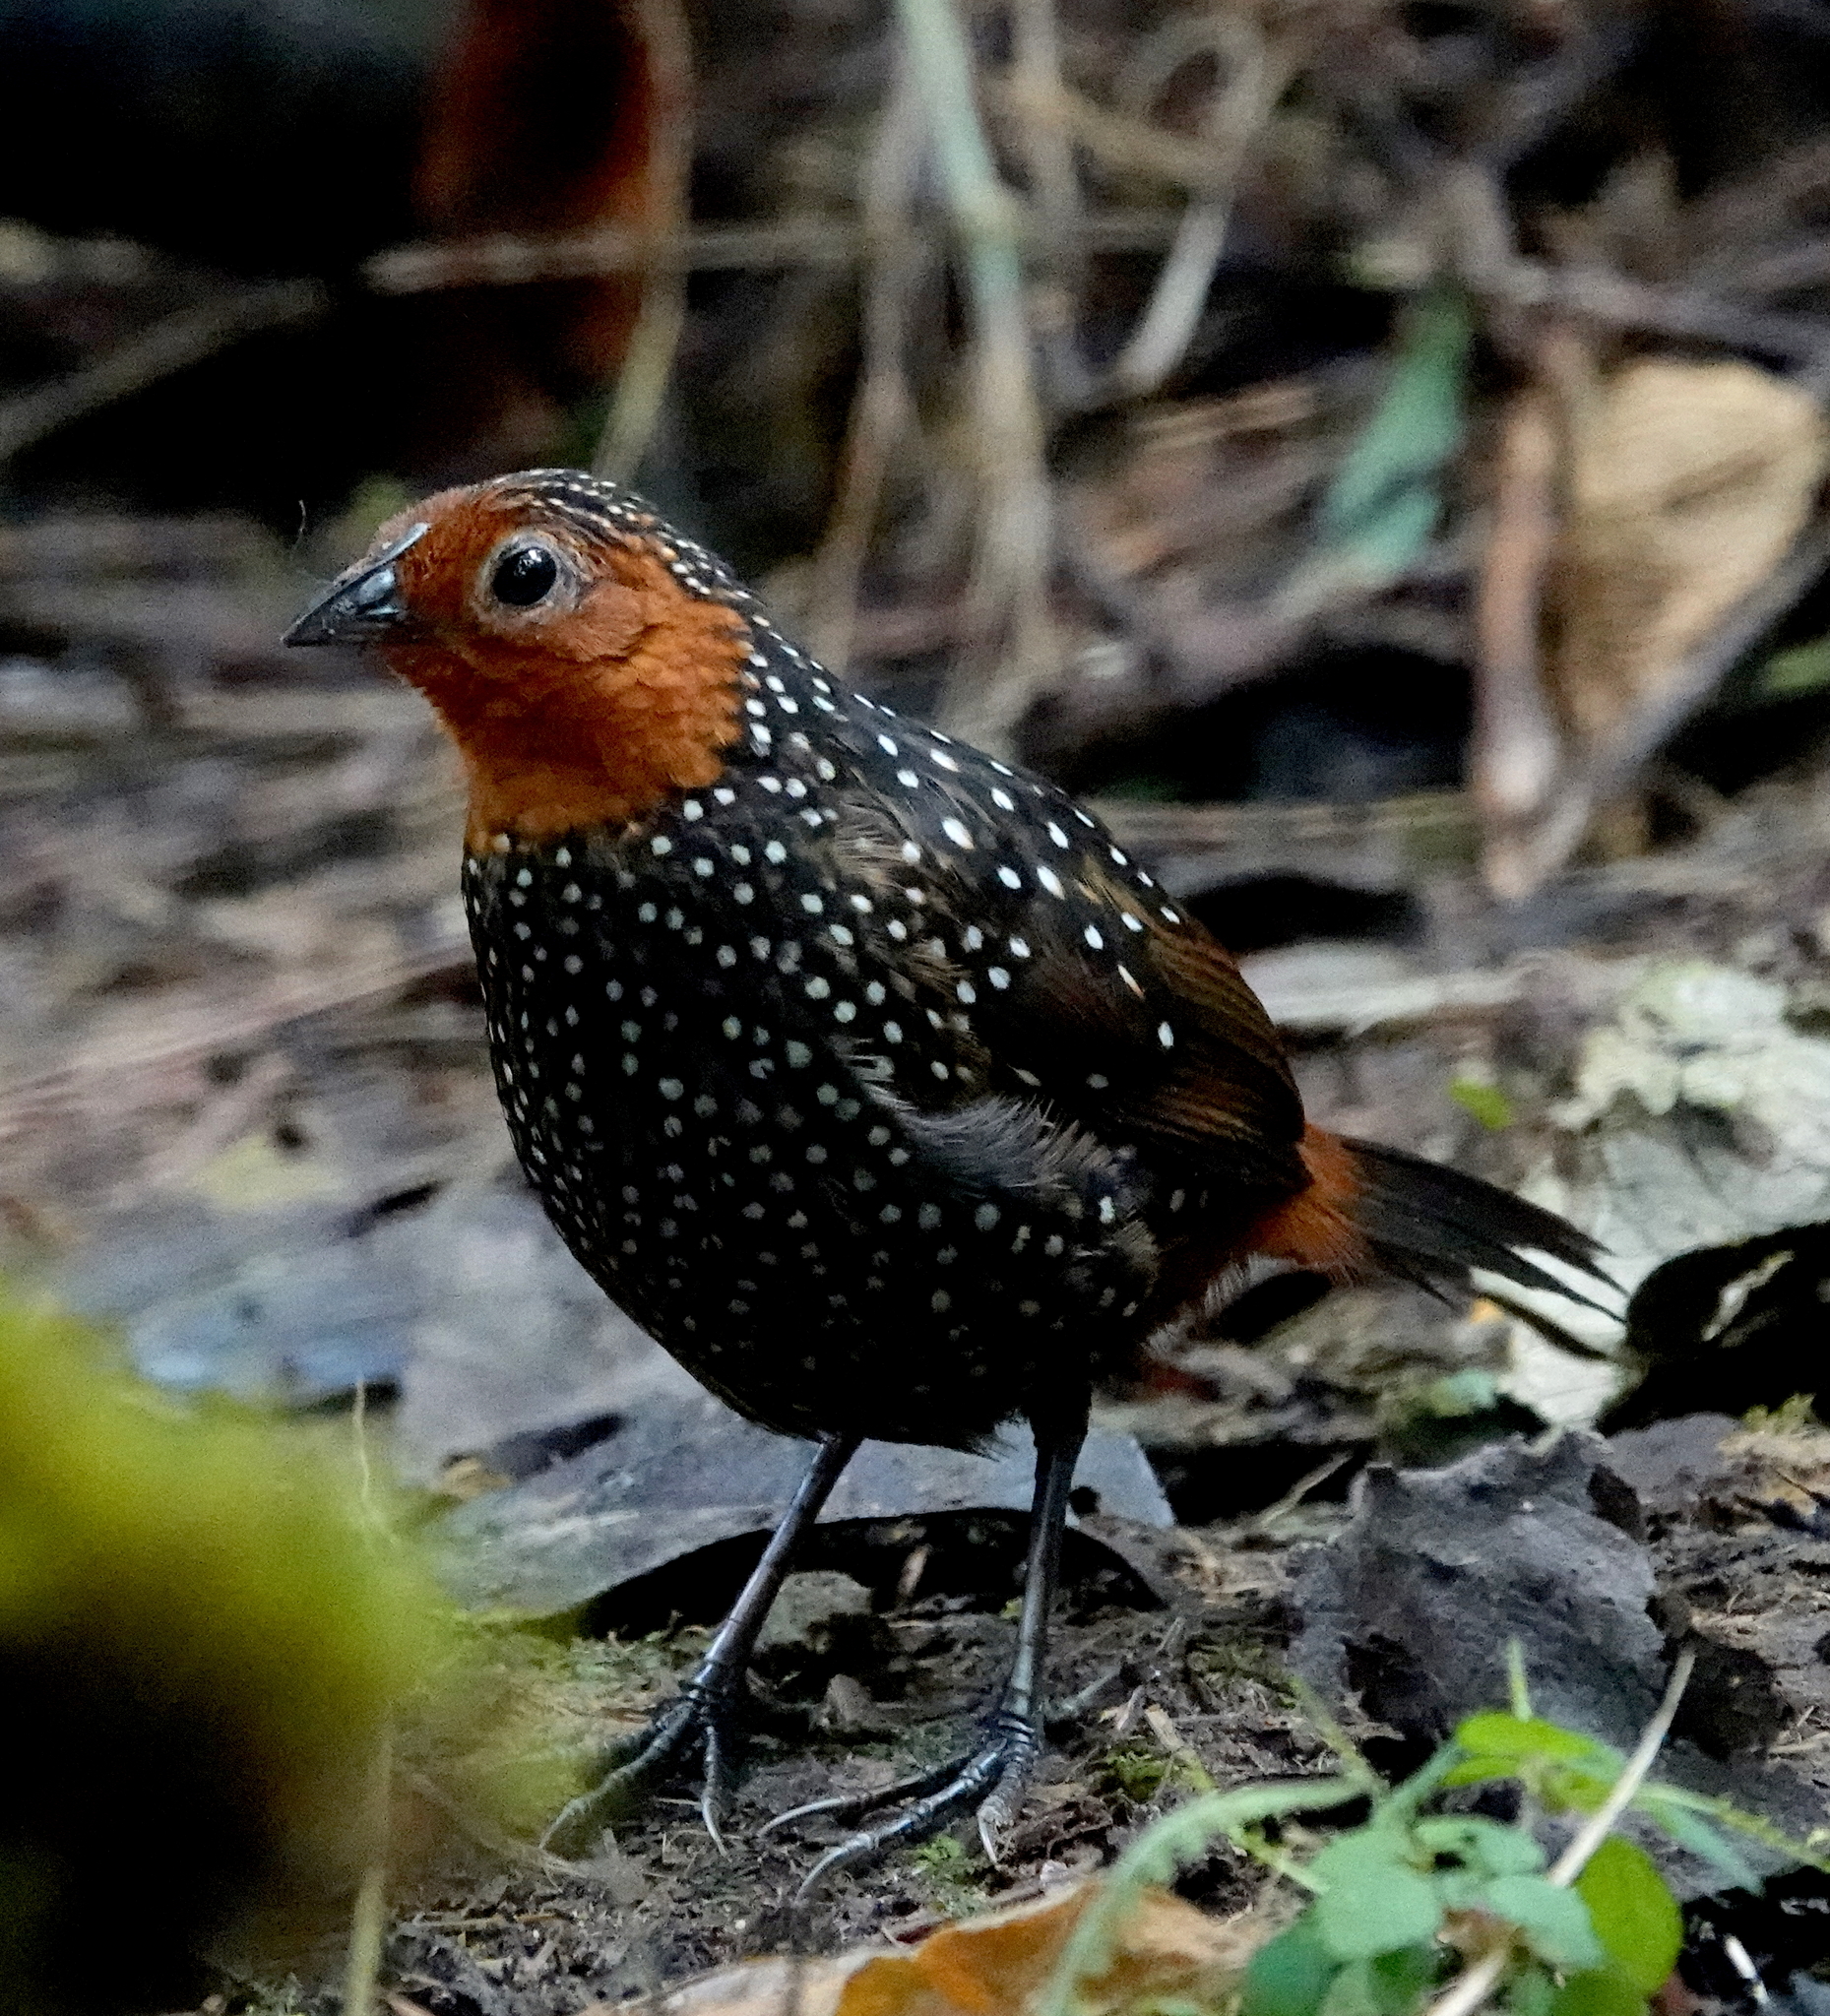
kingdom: Animalia
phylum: Chordata
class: Aves
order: Passeriformes
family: Rhinocryptidae
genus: Acropternis
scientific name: Acropternis orthonyx
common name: Ocellated tapaculo
